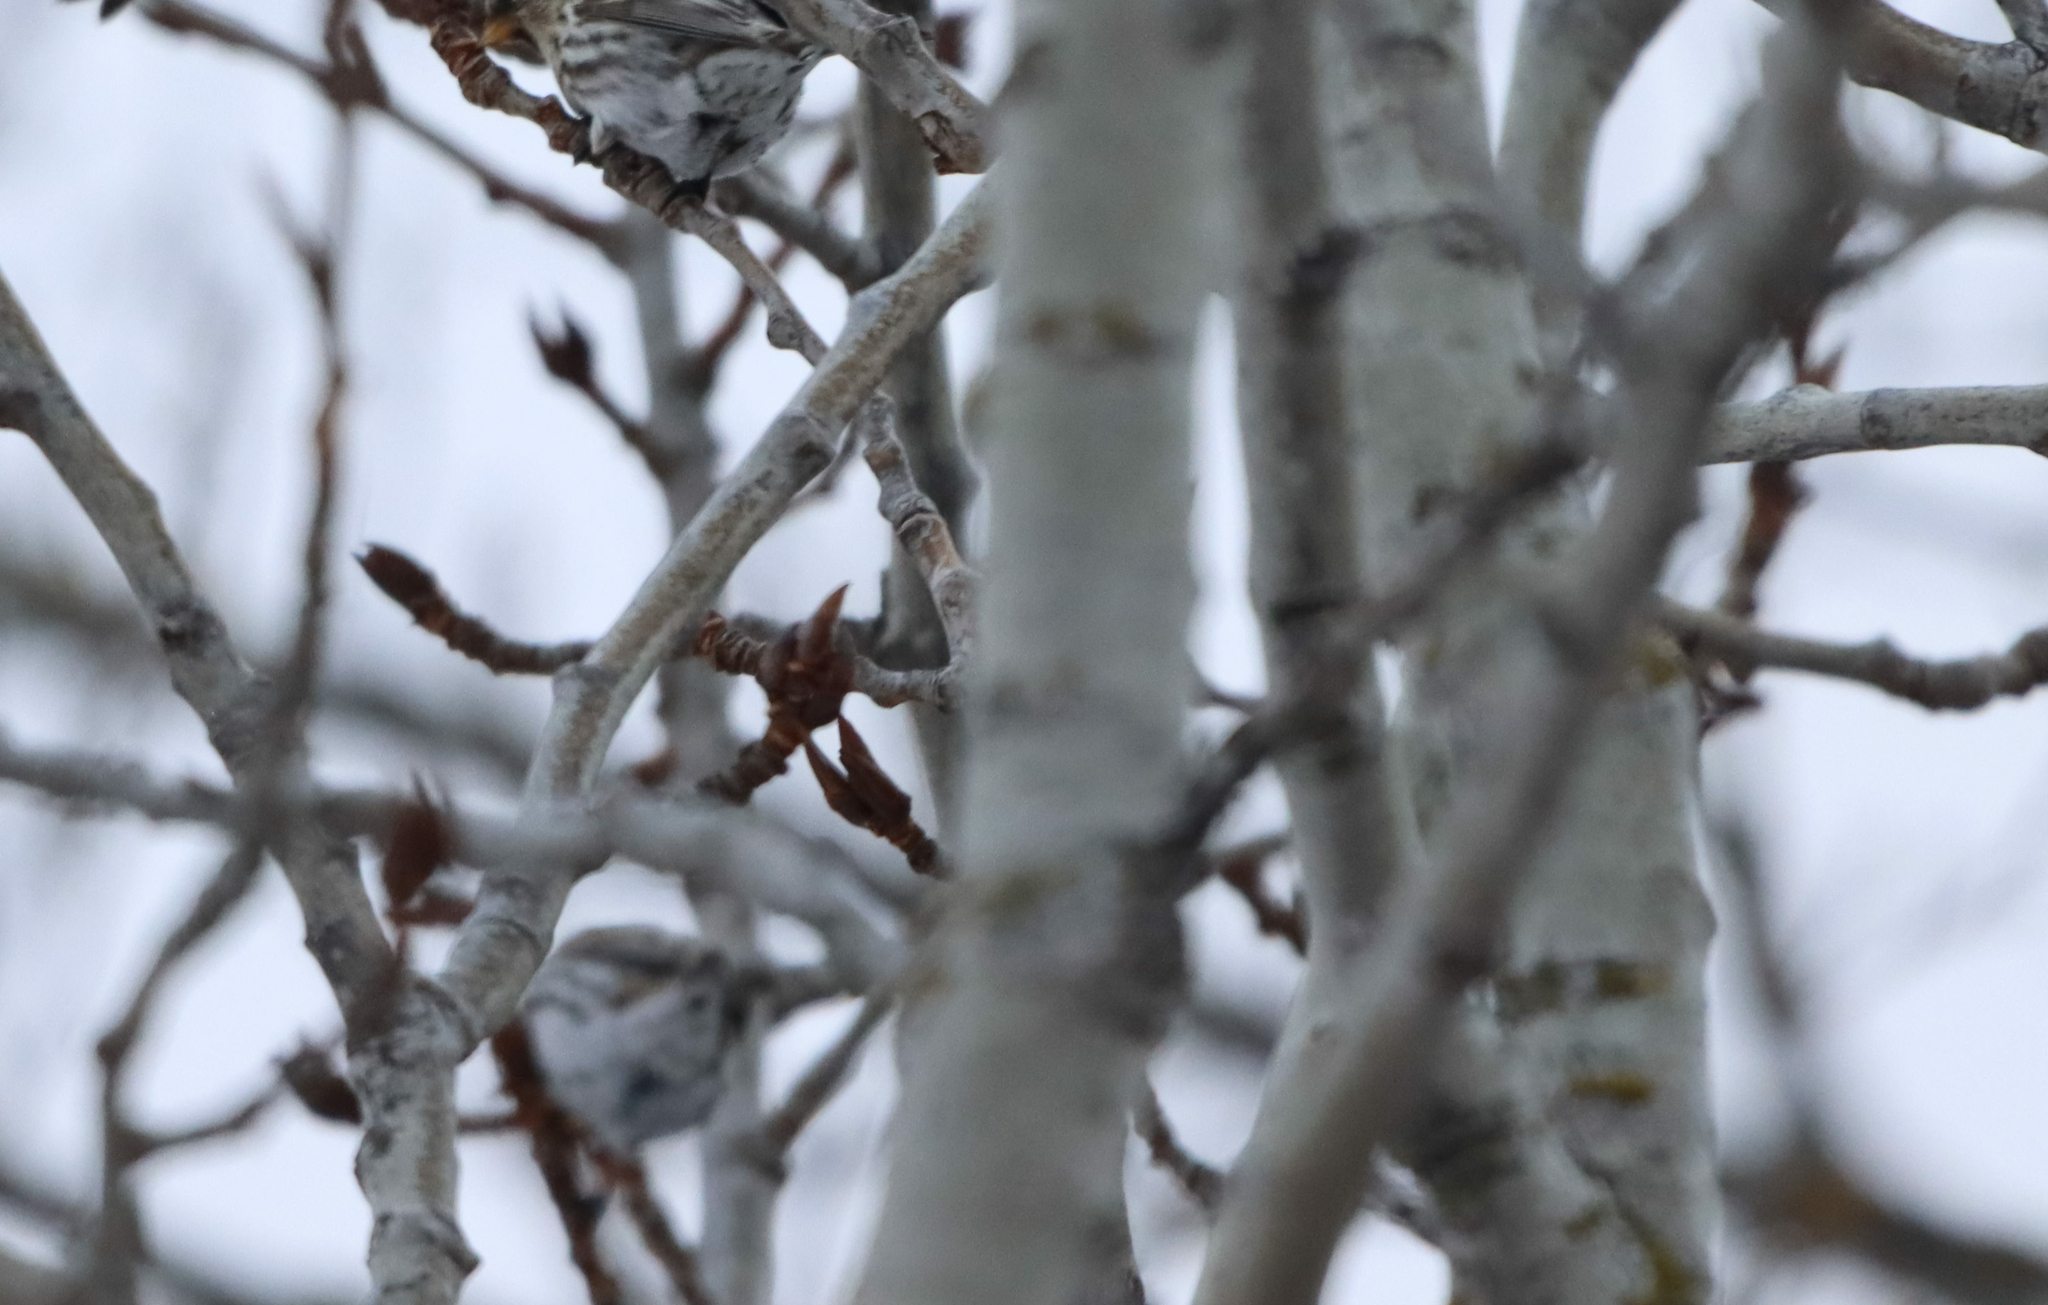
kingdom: Plantae
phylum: Tracheophyta
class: Magnoliopsida
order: Malpighiales
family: Salicaceae
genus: Populus
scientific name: Populus balsamifera
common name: Balsam poplar
